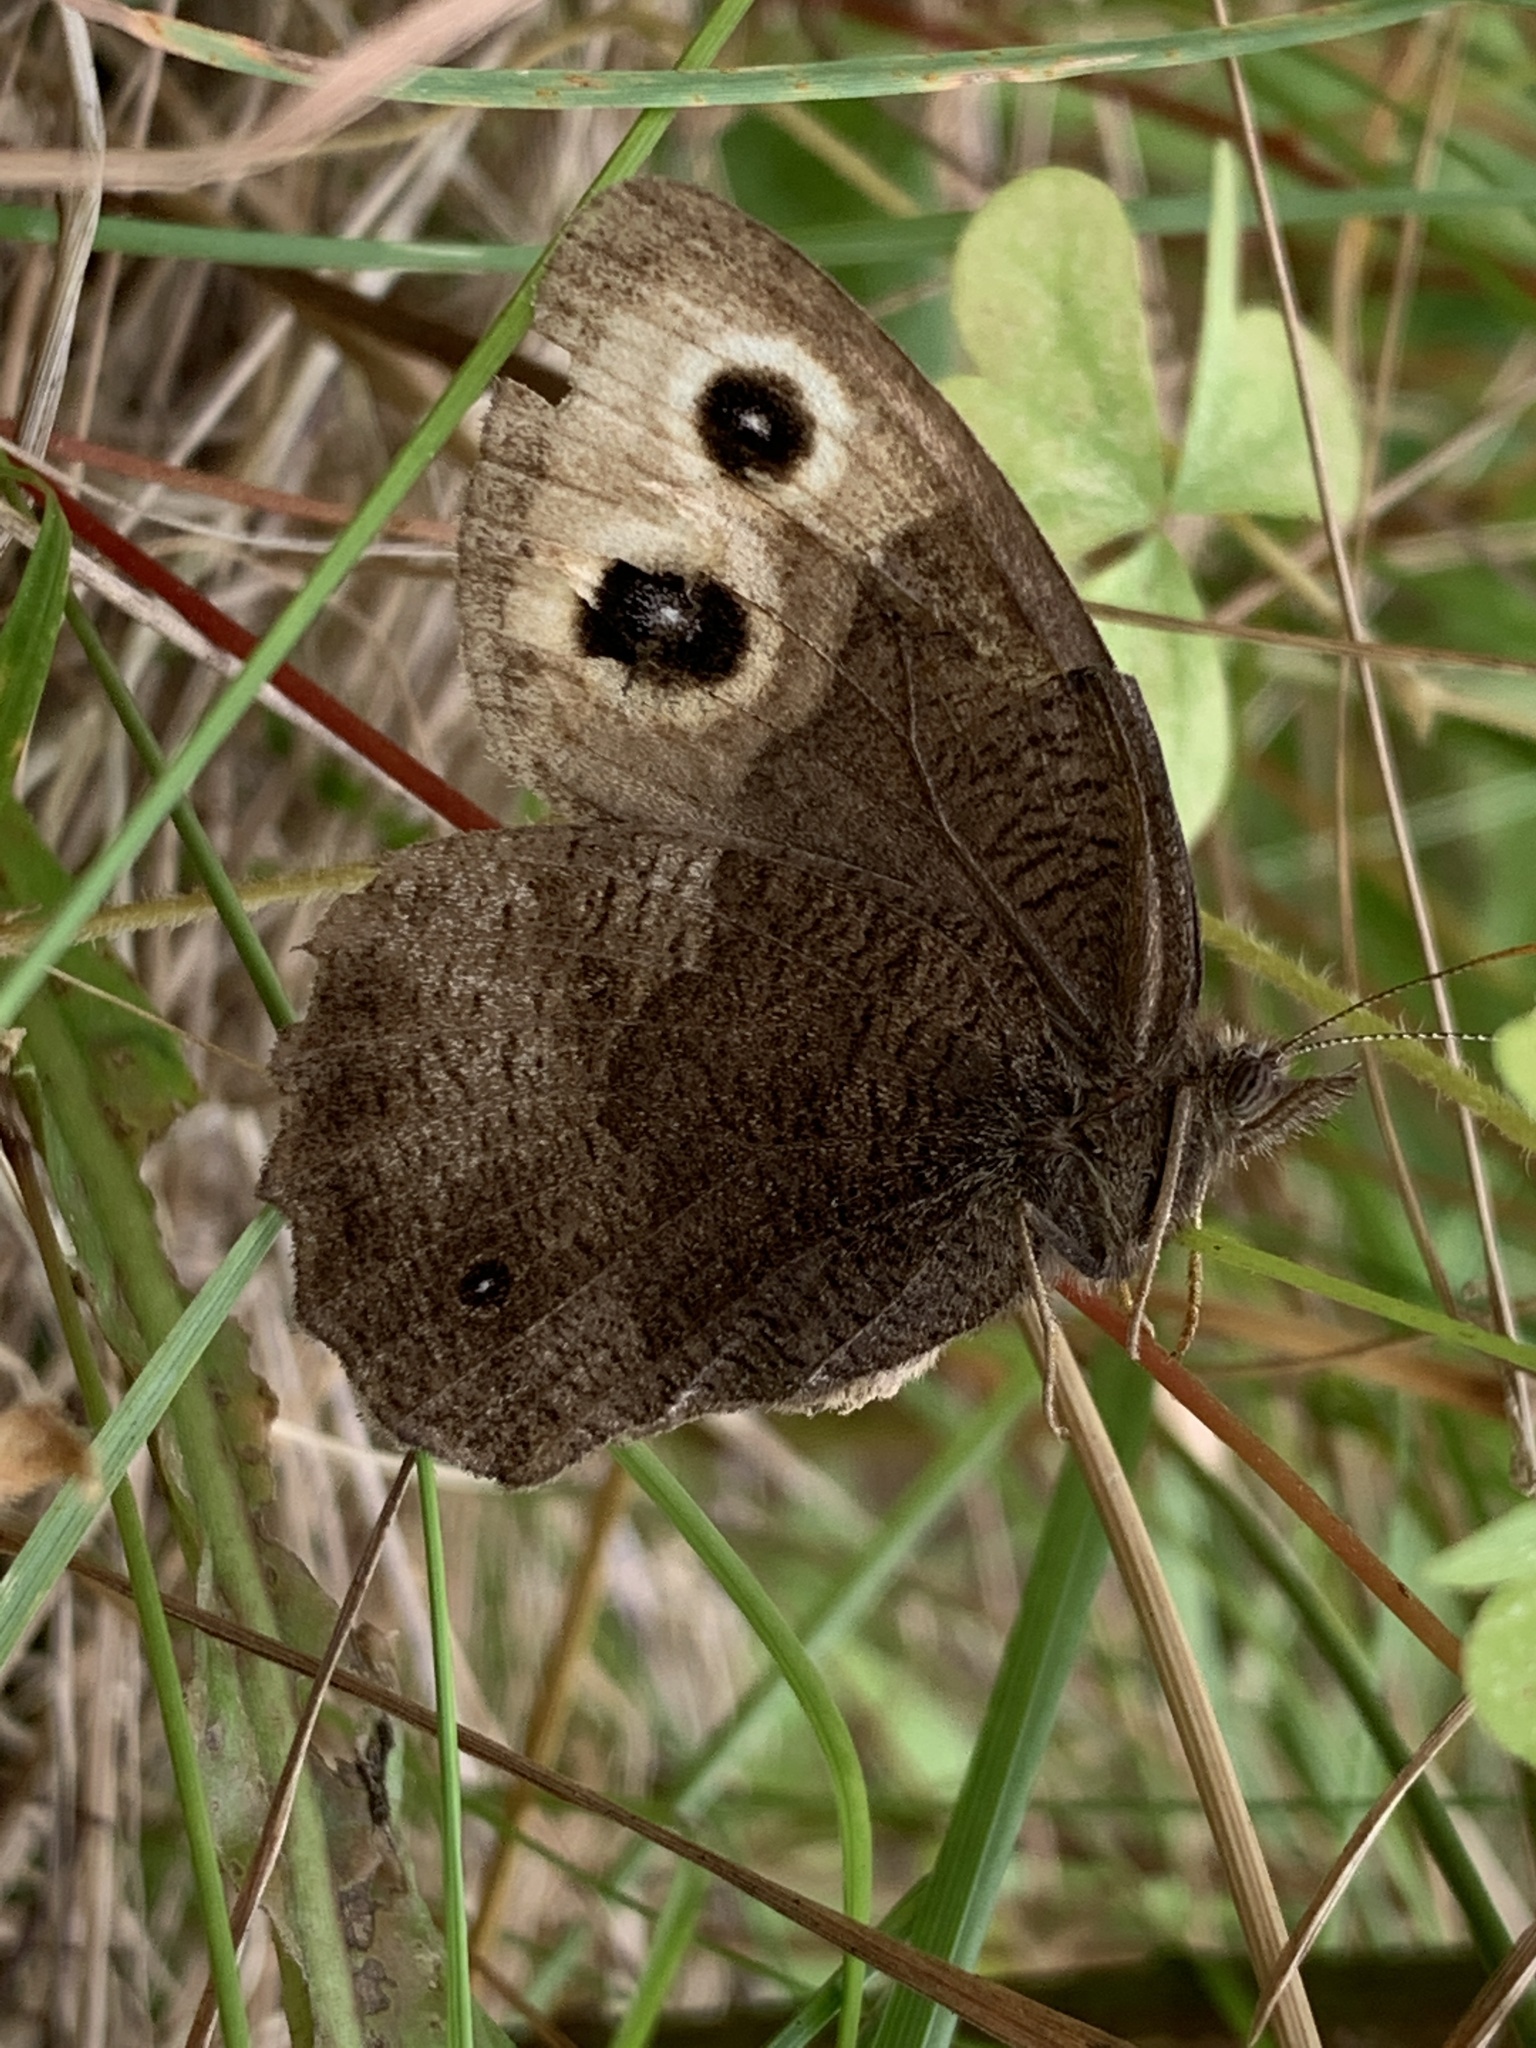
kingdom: Animalia
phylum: Arthropoda
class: Insecta
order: Lepidoptera
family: Nymphalidae
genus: Cercyonis
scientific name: Cercyonis pegala
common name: Common wood-nymph
